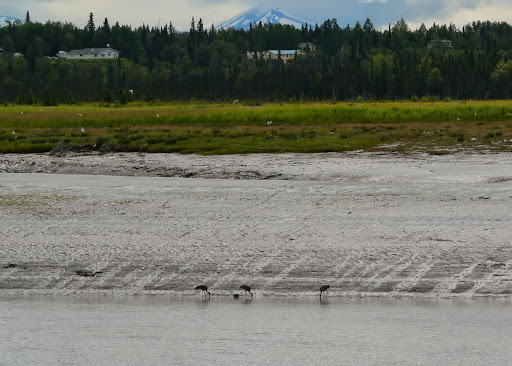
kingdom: Animalia
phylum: Chordata
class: Aves
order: Gruiformes
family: Gruidae
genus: Grus
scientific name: Grus canadensis
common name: Sandhill crane
